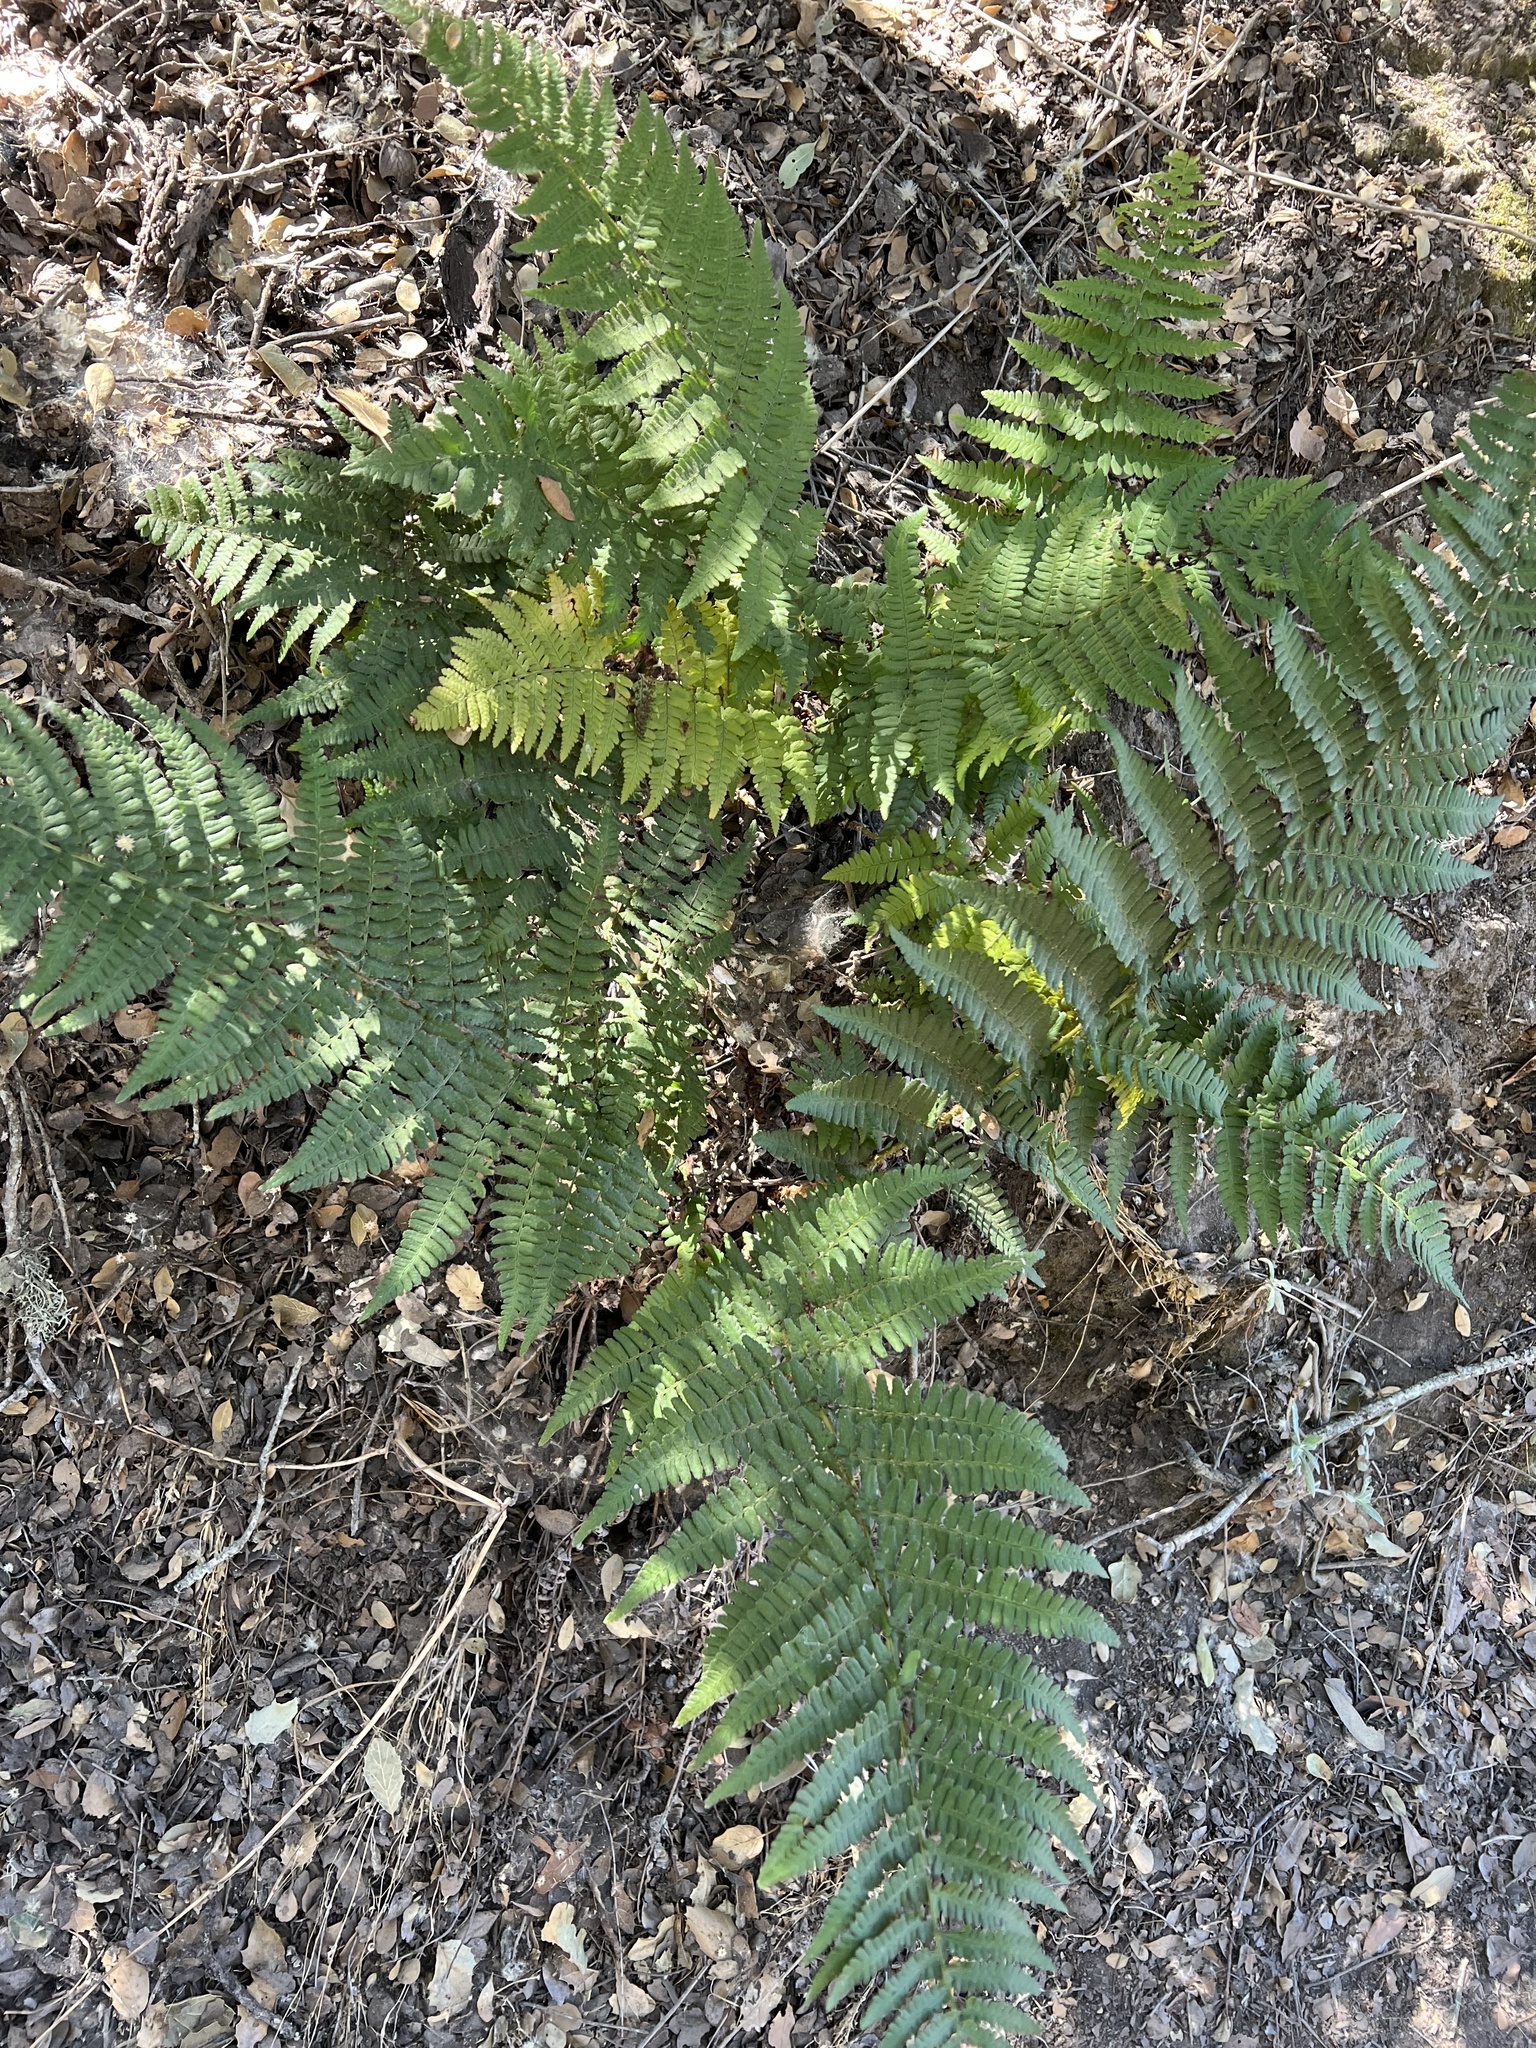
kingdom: Plantae
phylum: Tracheophyta
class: Polypodiopsida
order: Polypodiales
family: Dryopteridaceae
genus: Dryopteris
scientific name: Dryopteris arguta
